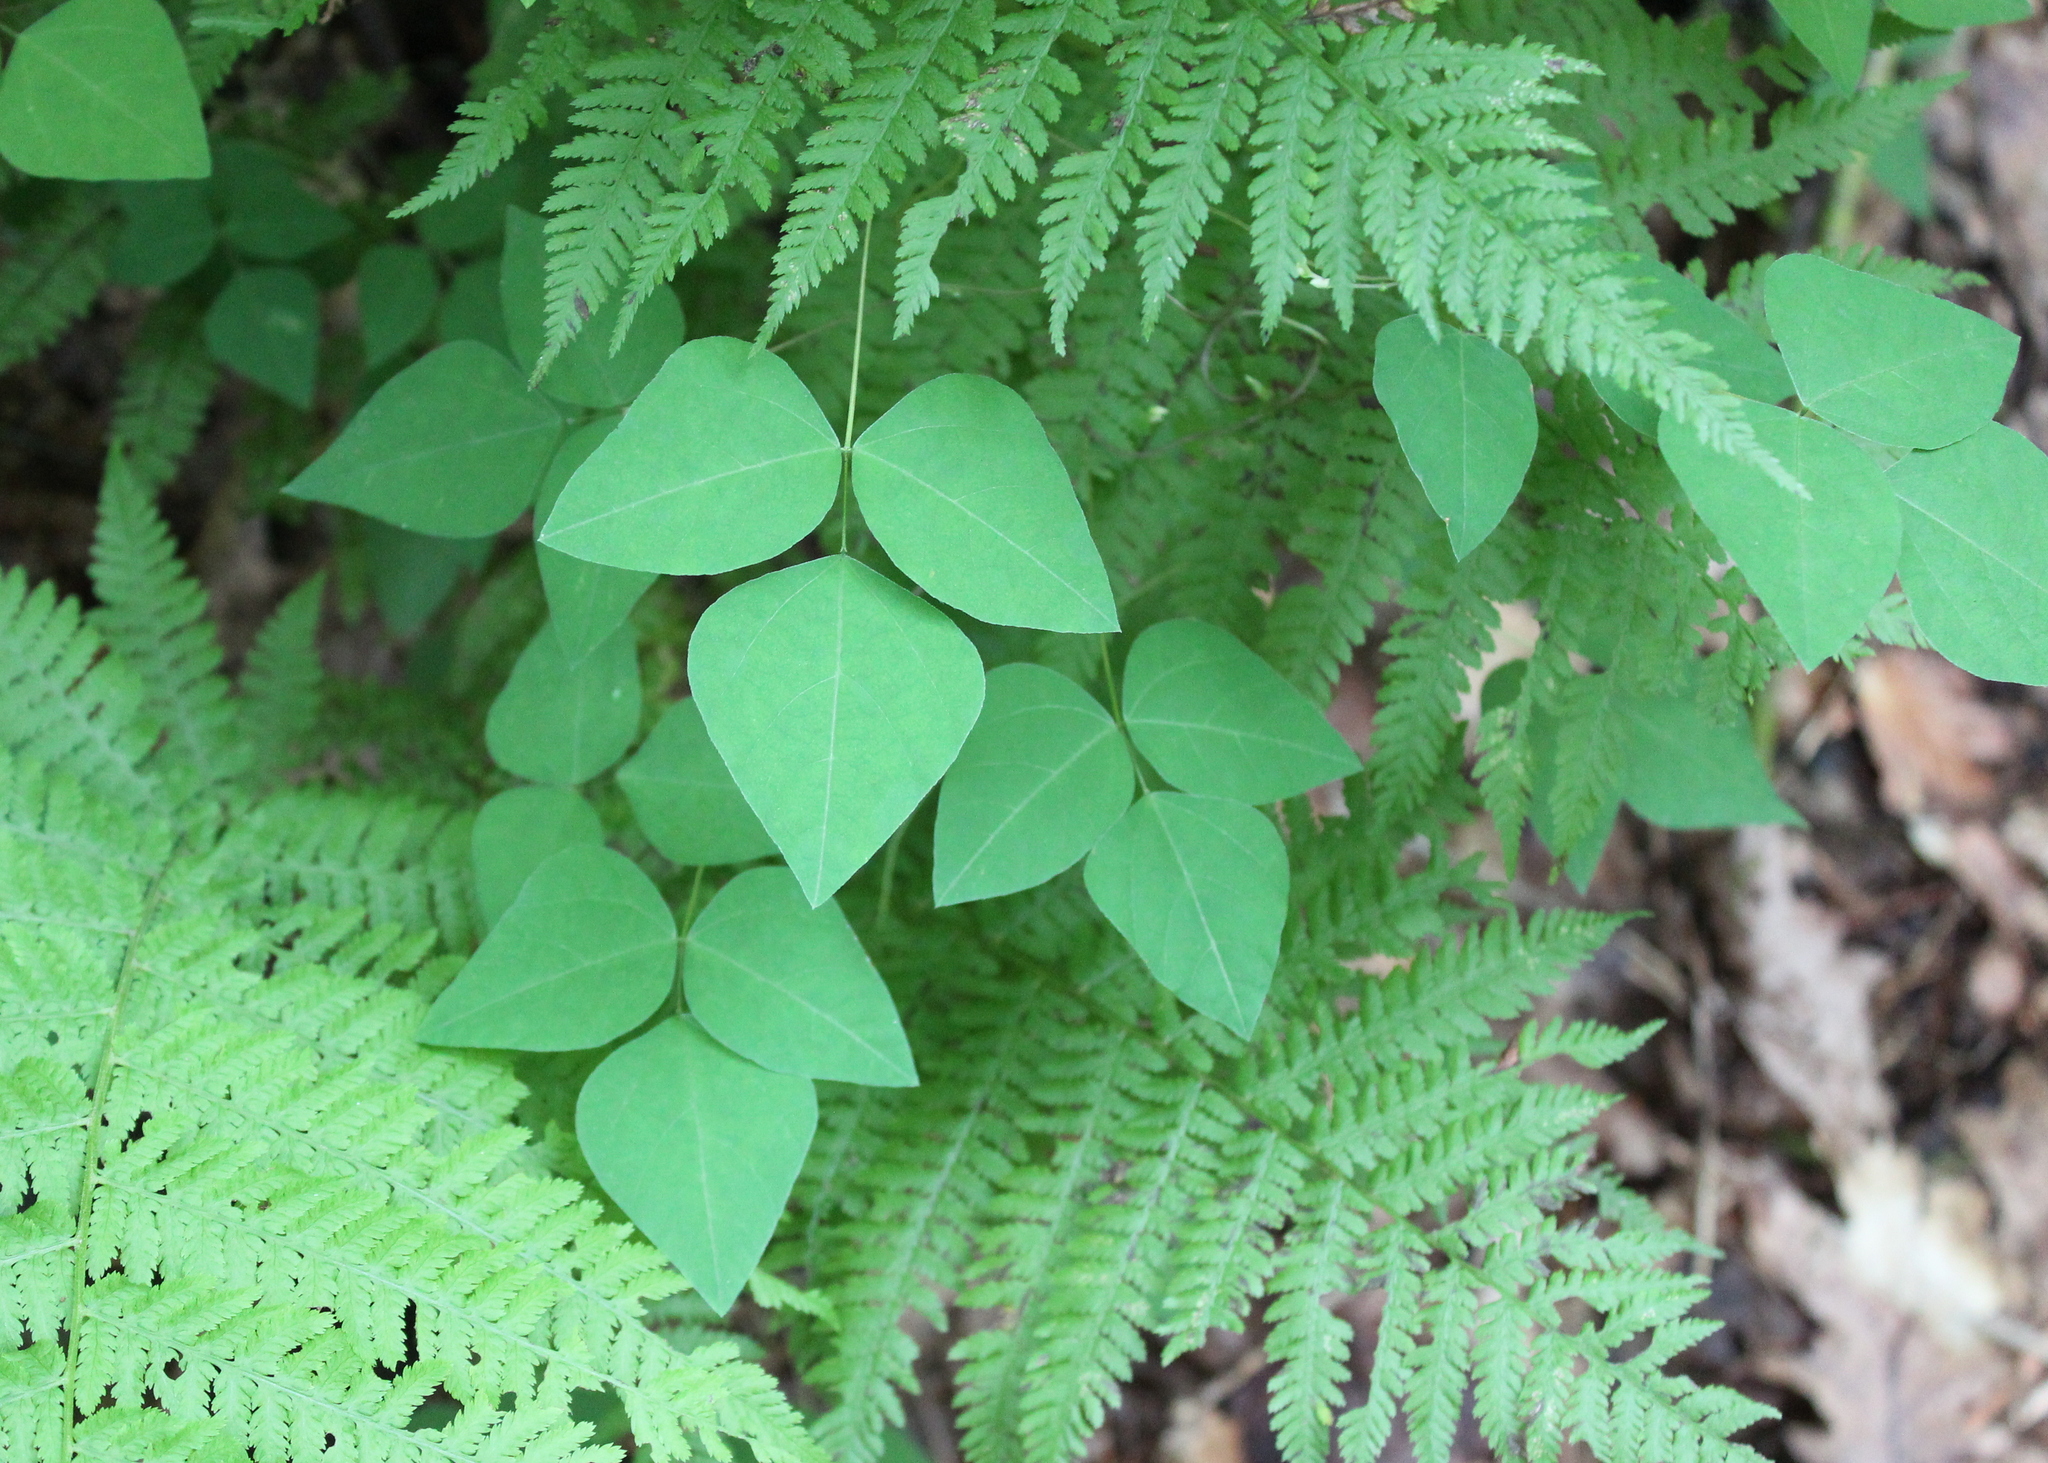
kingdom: Plantae
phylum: Tracheophyta
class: Magnoliopsida
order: Fabales
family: Fabaceae
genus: Amphicarpaea
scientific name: Amphicarpaea bracteata
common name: American hog peanut
